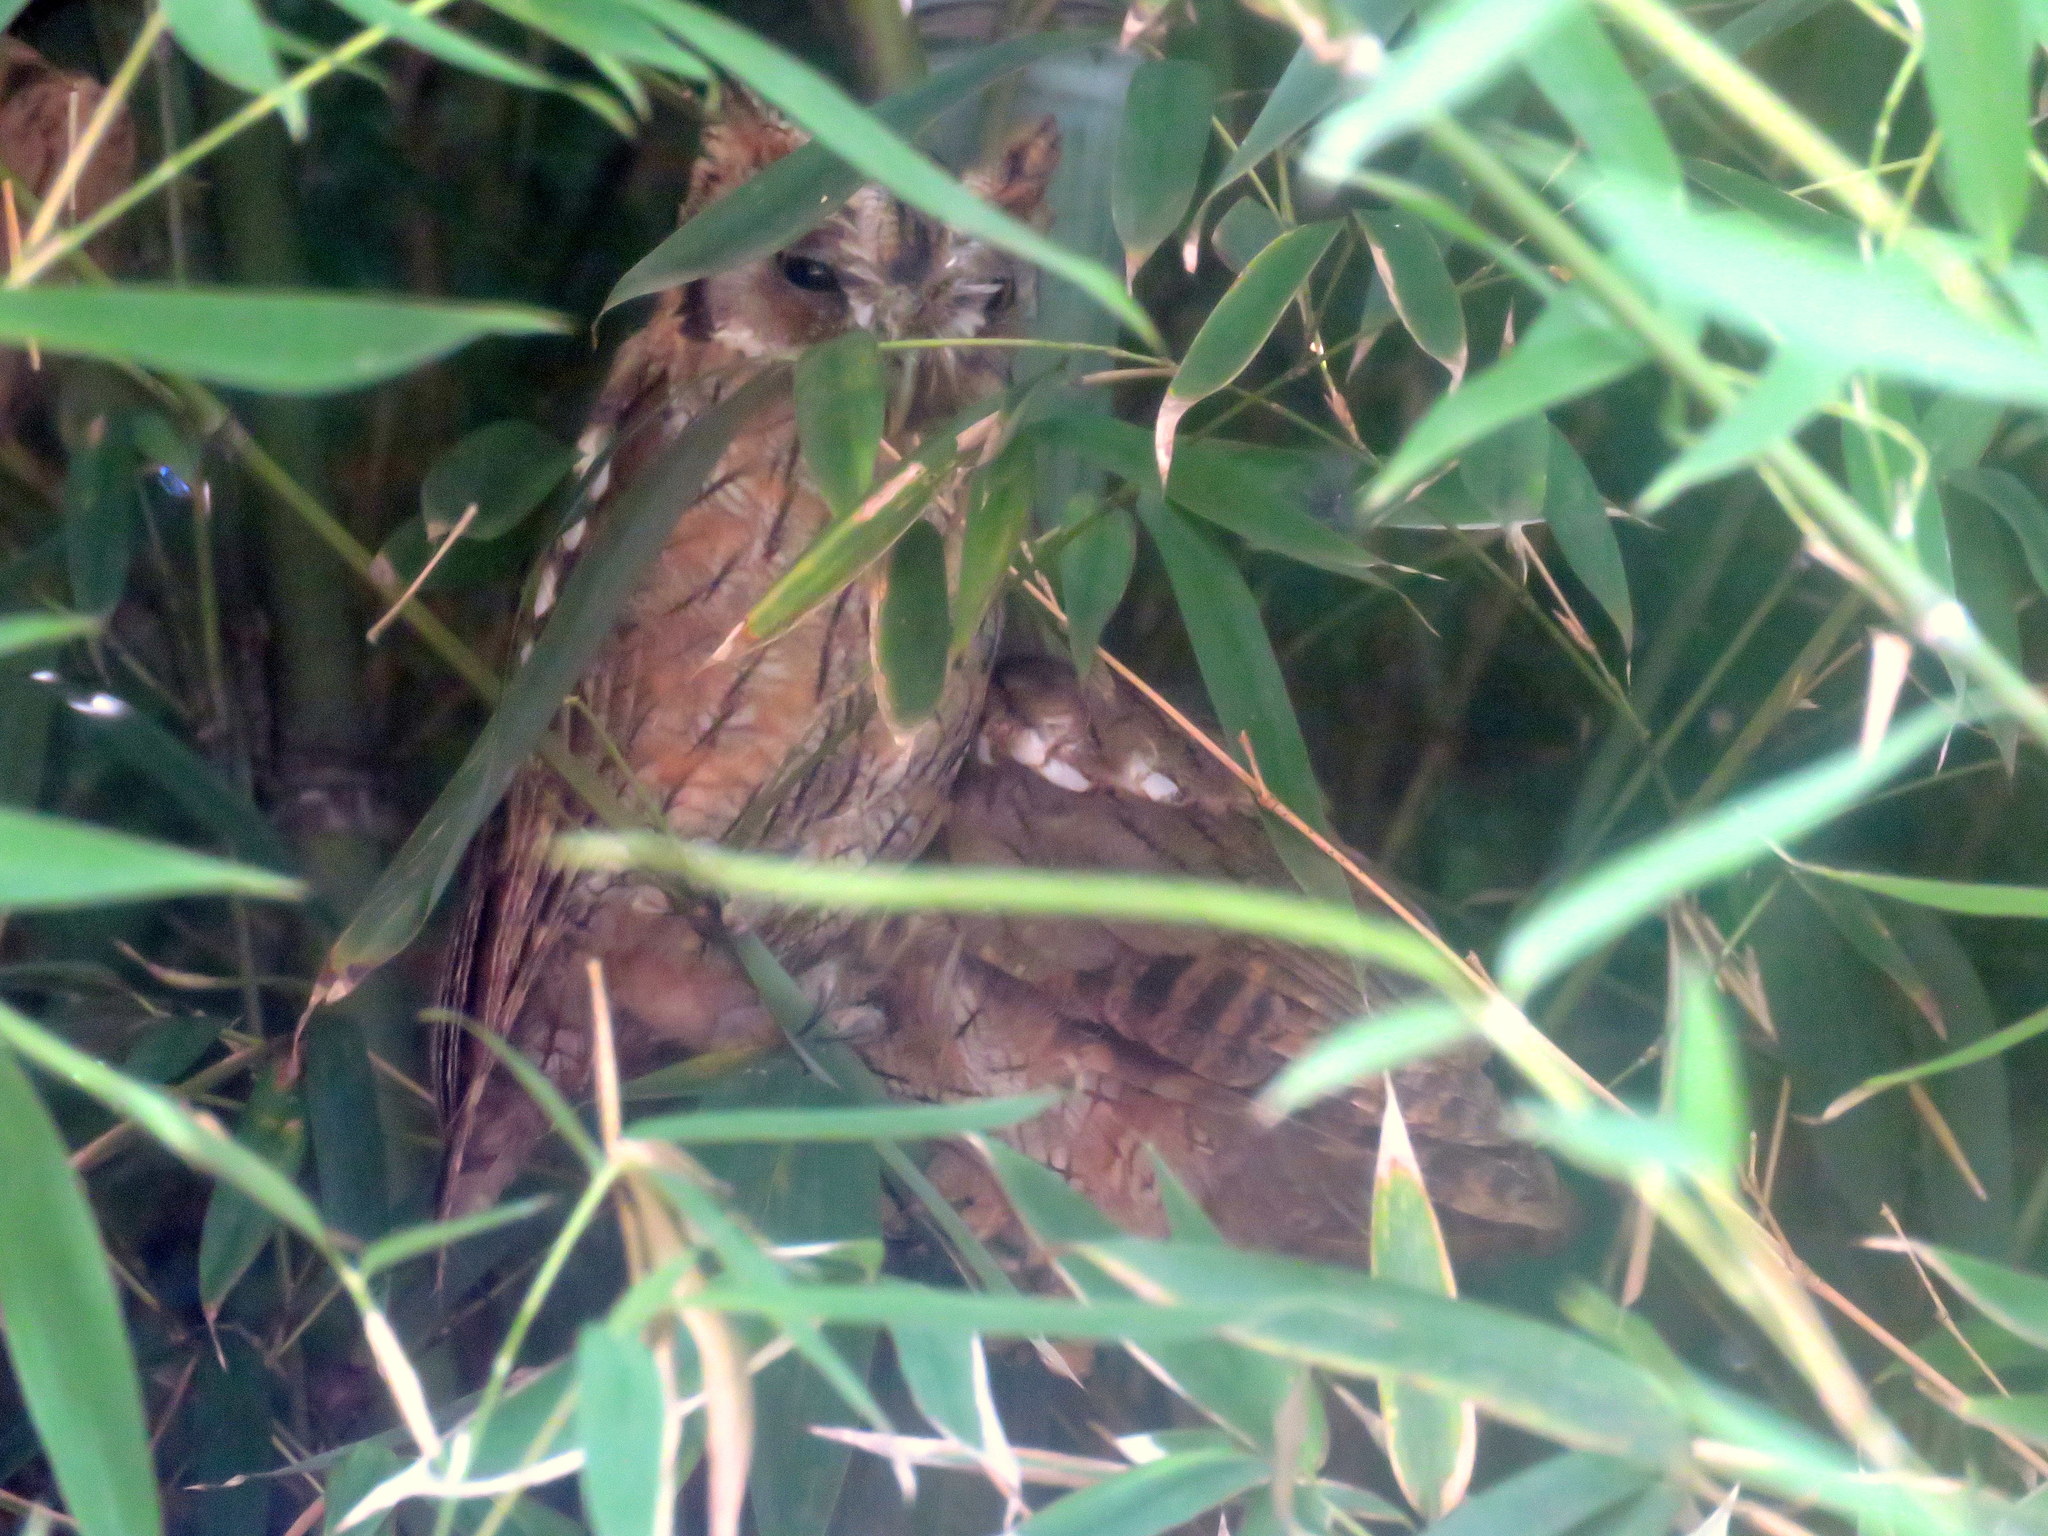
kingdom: Animalia
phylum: Chordata
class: Aves
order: Strigiformes
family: Strigidae
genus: Megascops
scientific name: Megascops choliba
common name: Tropical screech-owl
